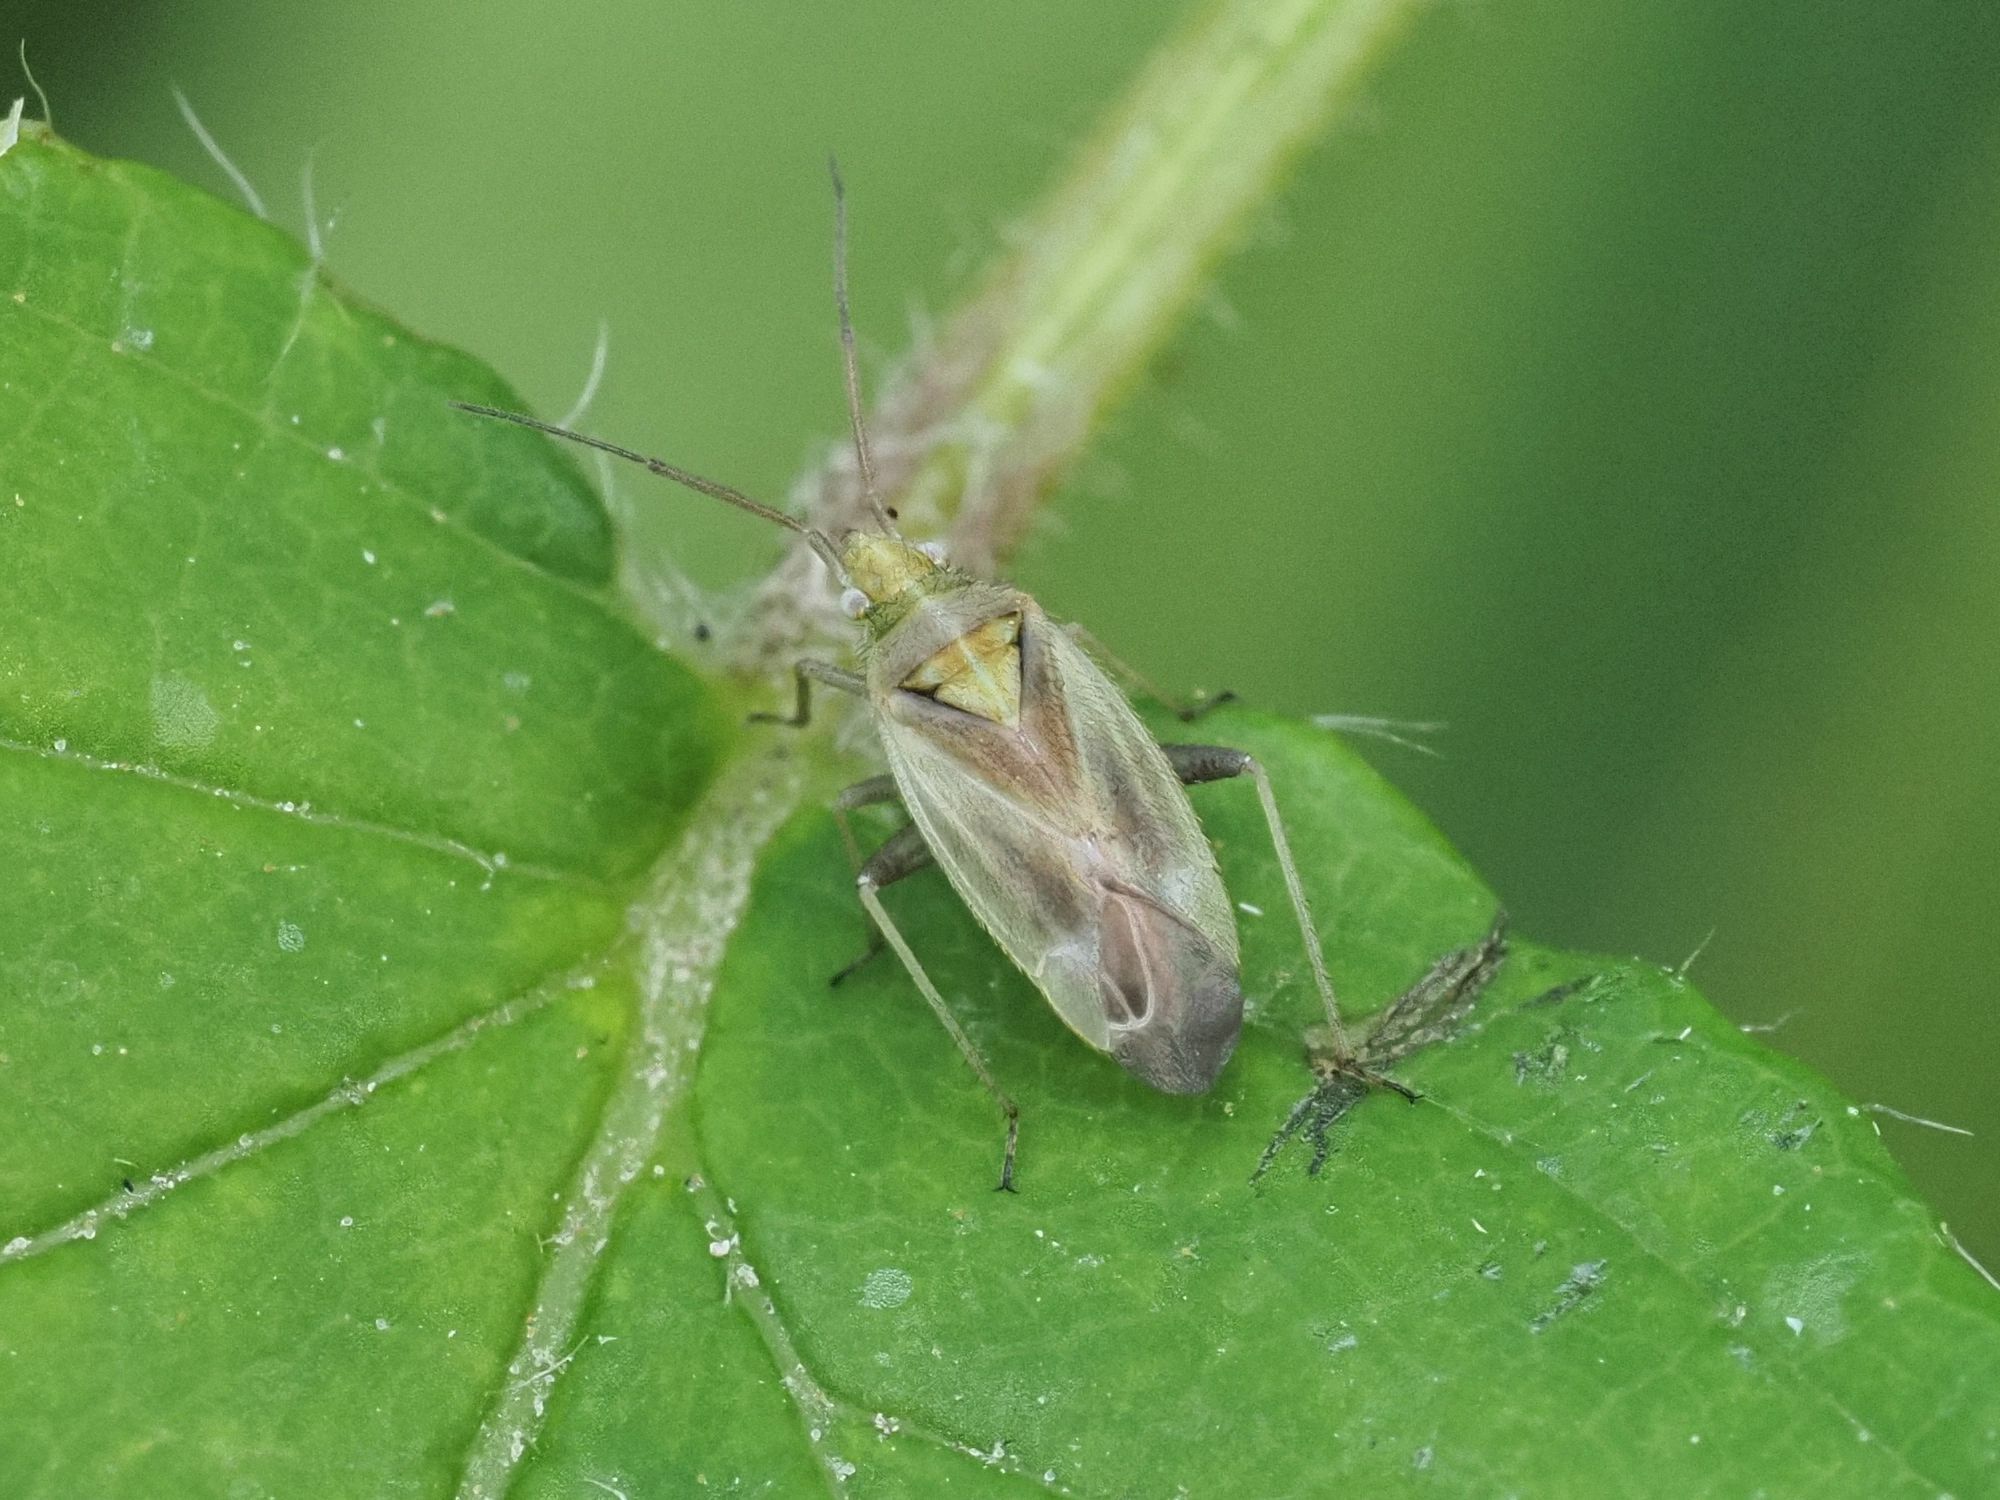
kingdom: Animalia
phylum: Arthropoda
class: Insecta
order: Hemiptera
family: Miridae
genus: Amblytylus
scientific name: Amblytylus nasutus
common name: Plant bug
